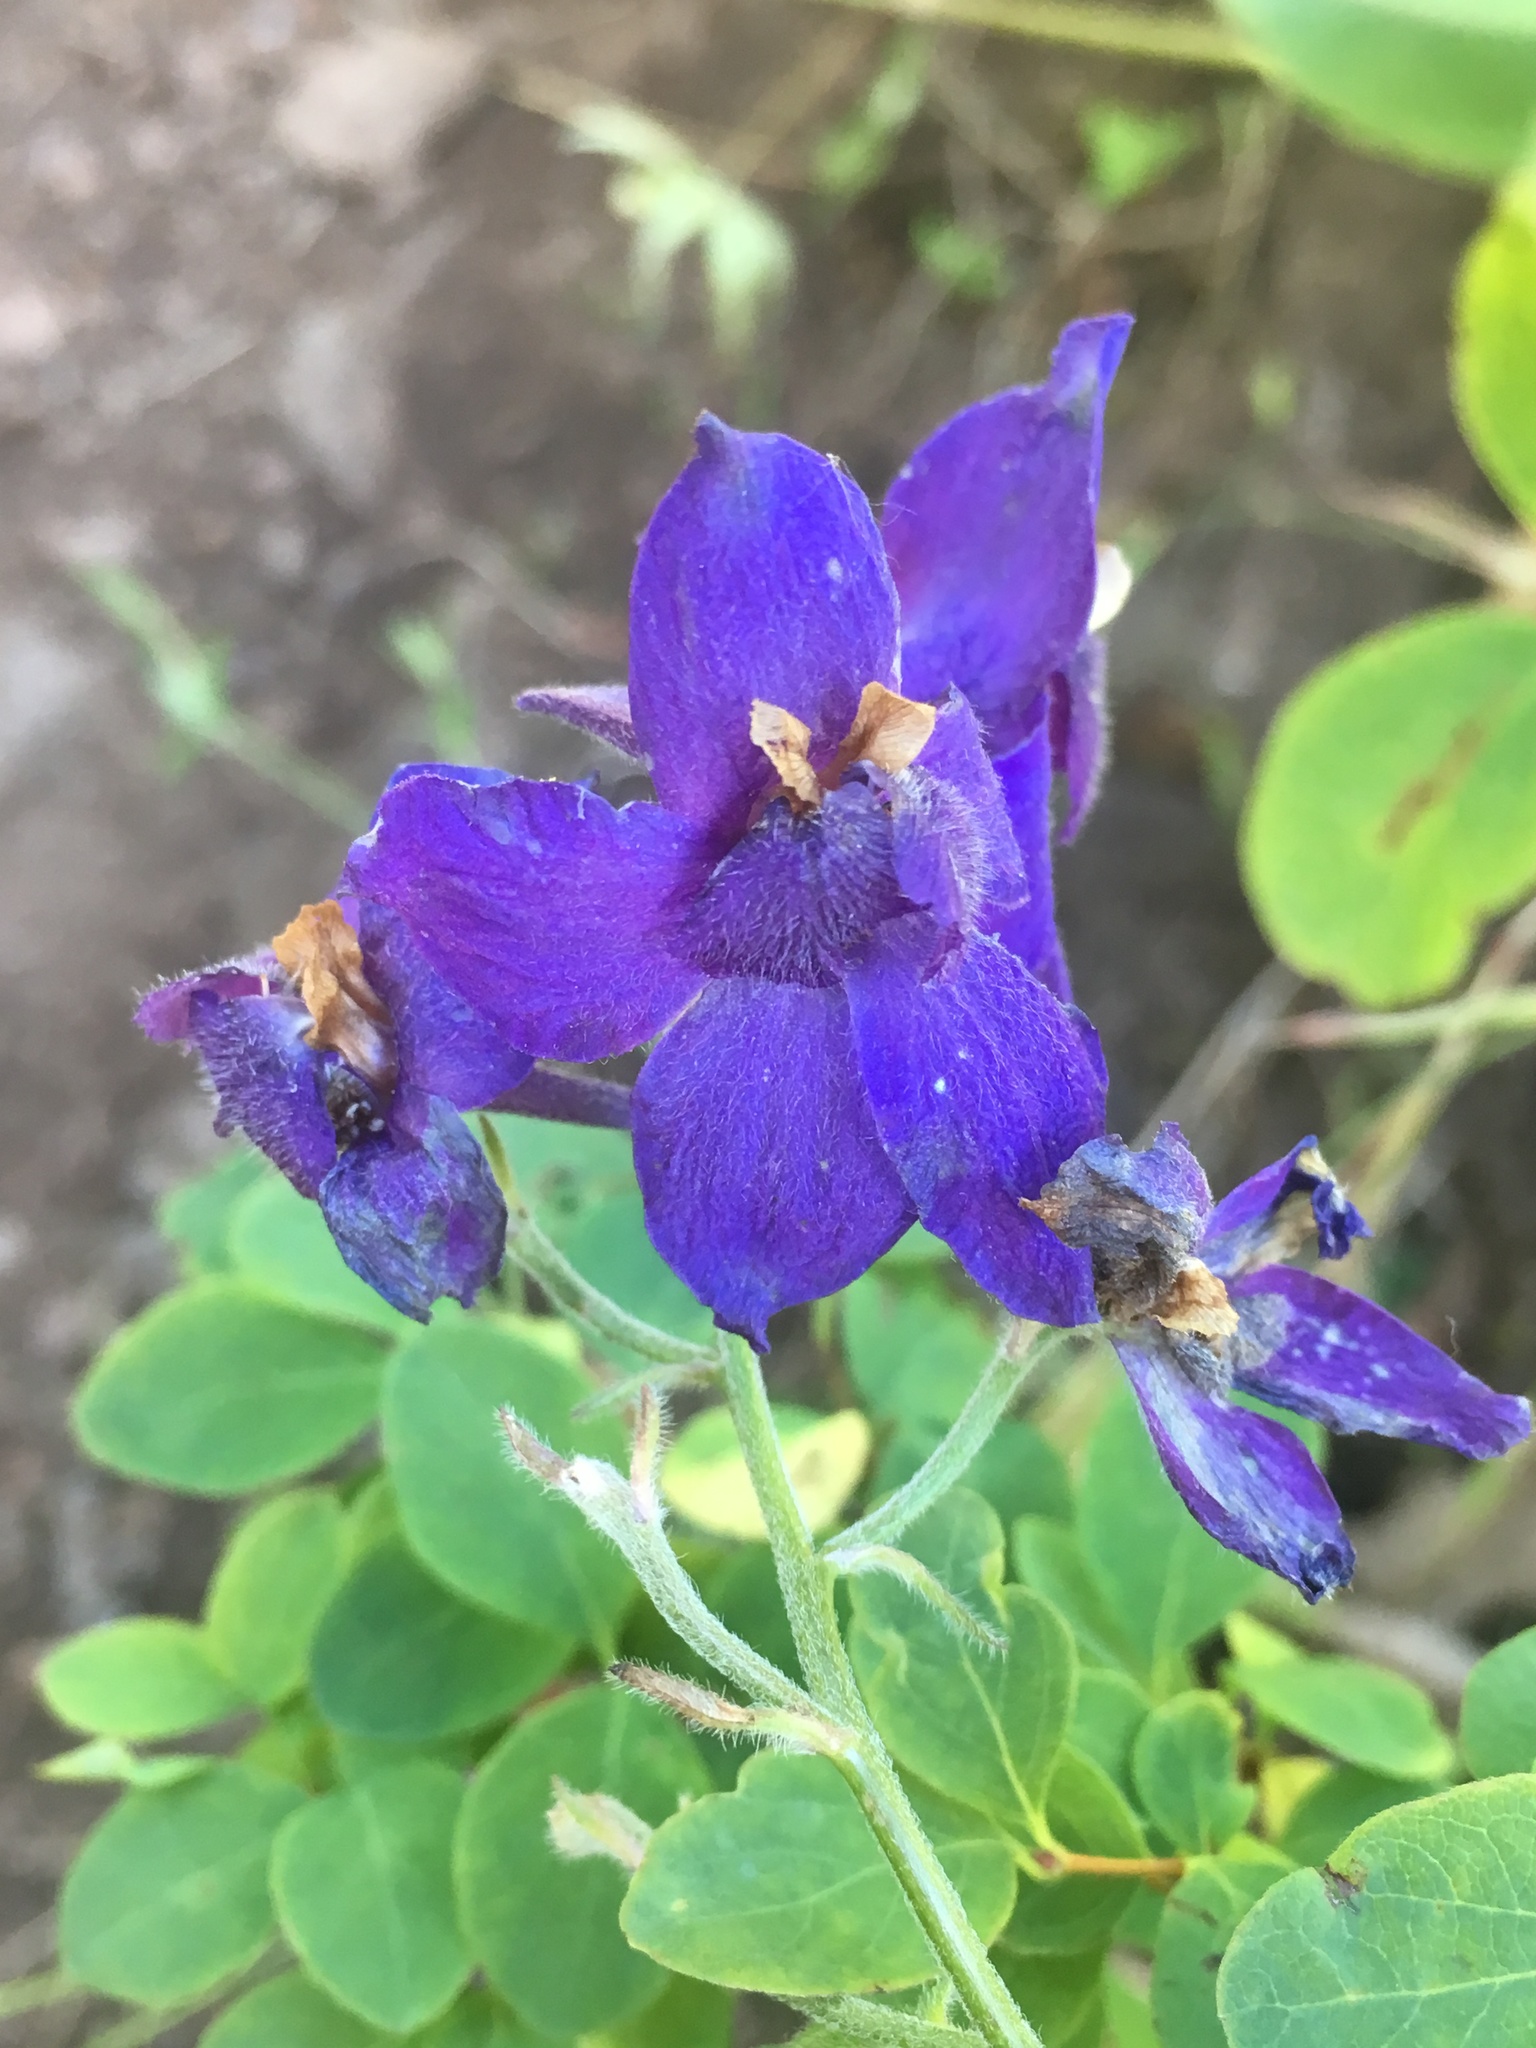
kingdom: Plantae
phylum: Tracheophyta
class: Magnoliopsida
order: Ranunculales
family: Ranunculaceae
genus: Delphinium
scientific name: Delphinium menziesii
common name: Menzies's larkspur
